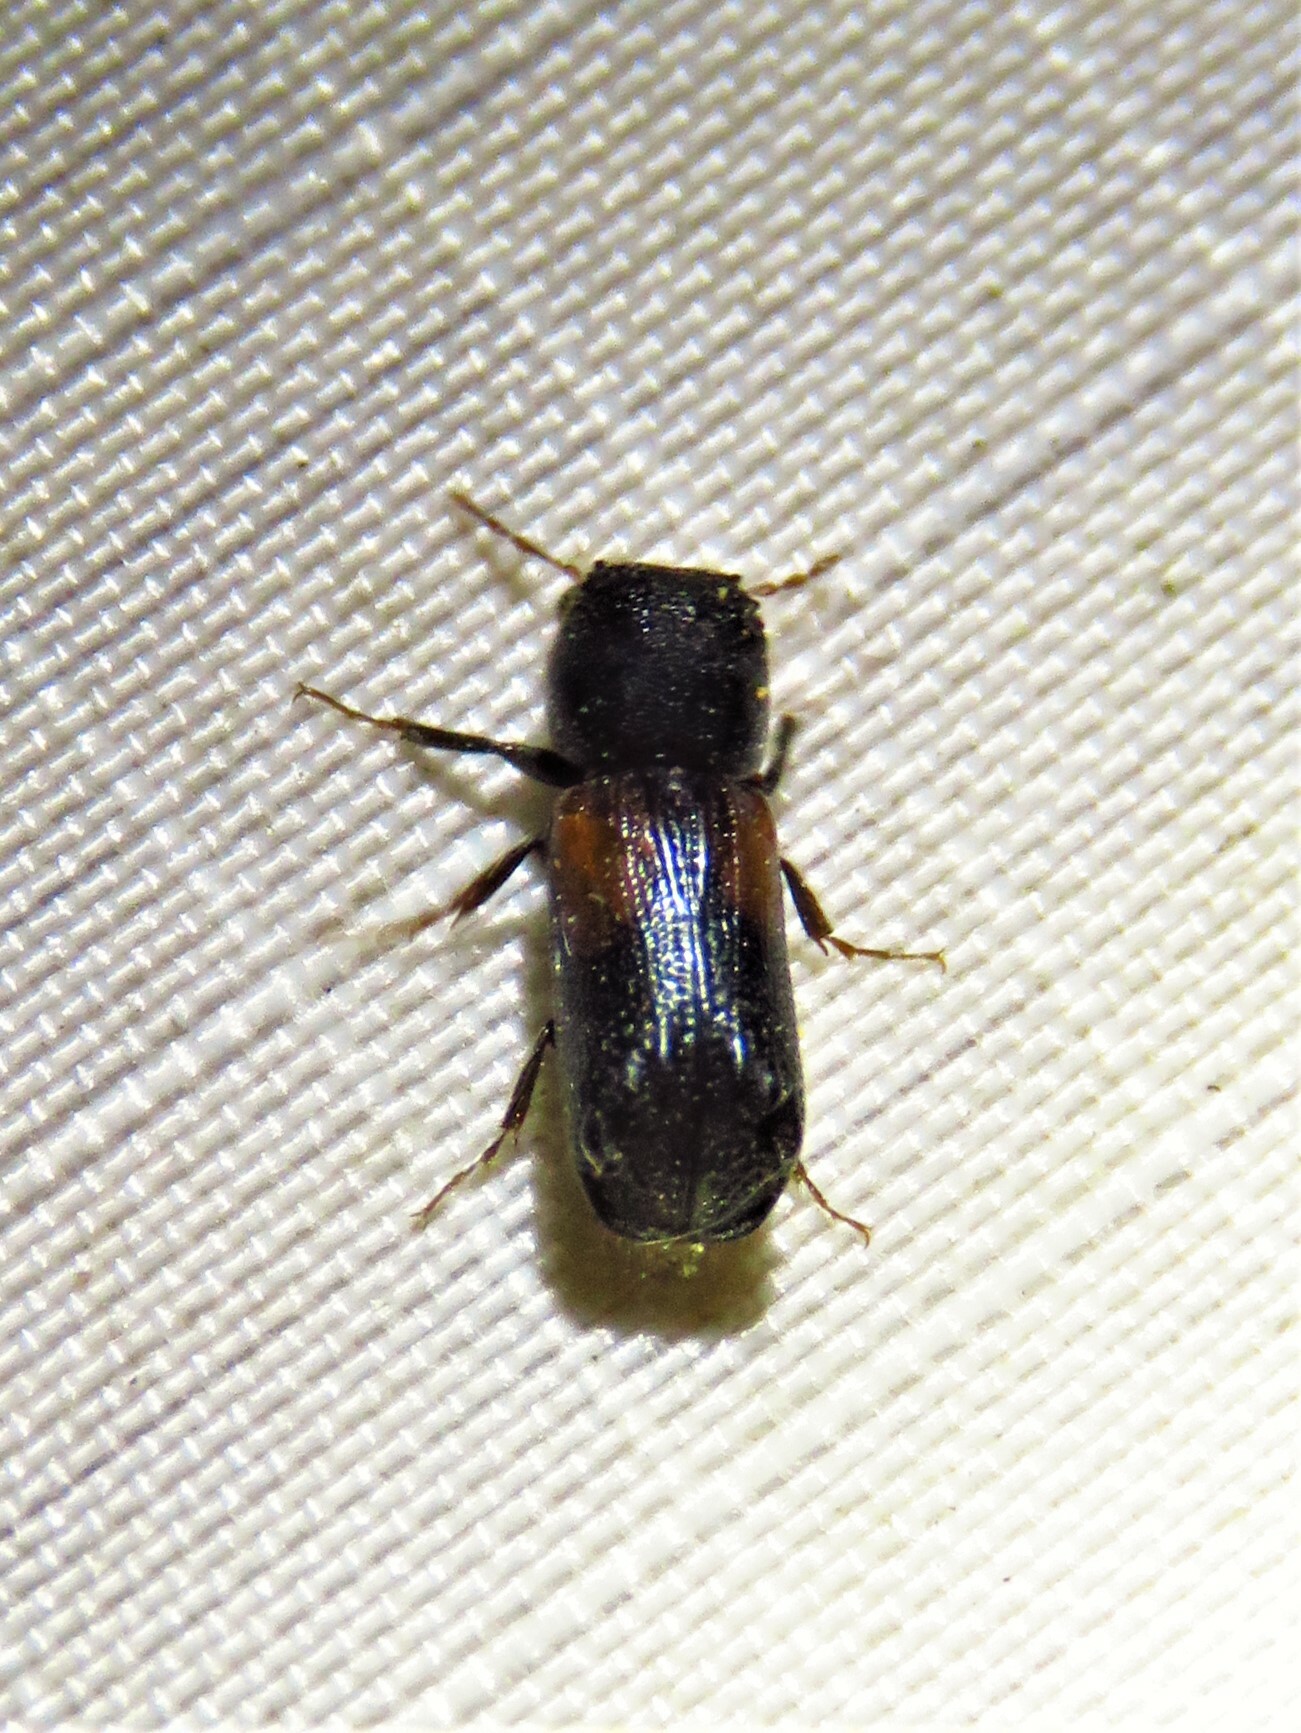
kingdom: Animalia
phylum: Arthropoda
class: Insecta
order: Coleoptera
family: Bostrichidae
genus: Xylobiops
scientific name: Xylobiops basilaris
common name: Red-shouldered bostrichid
